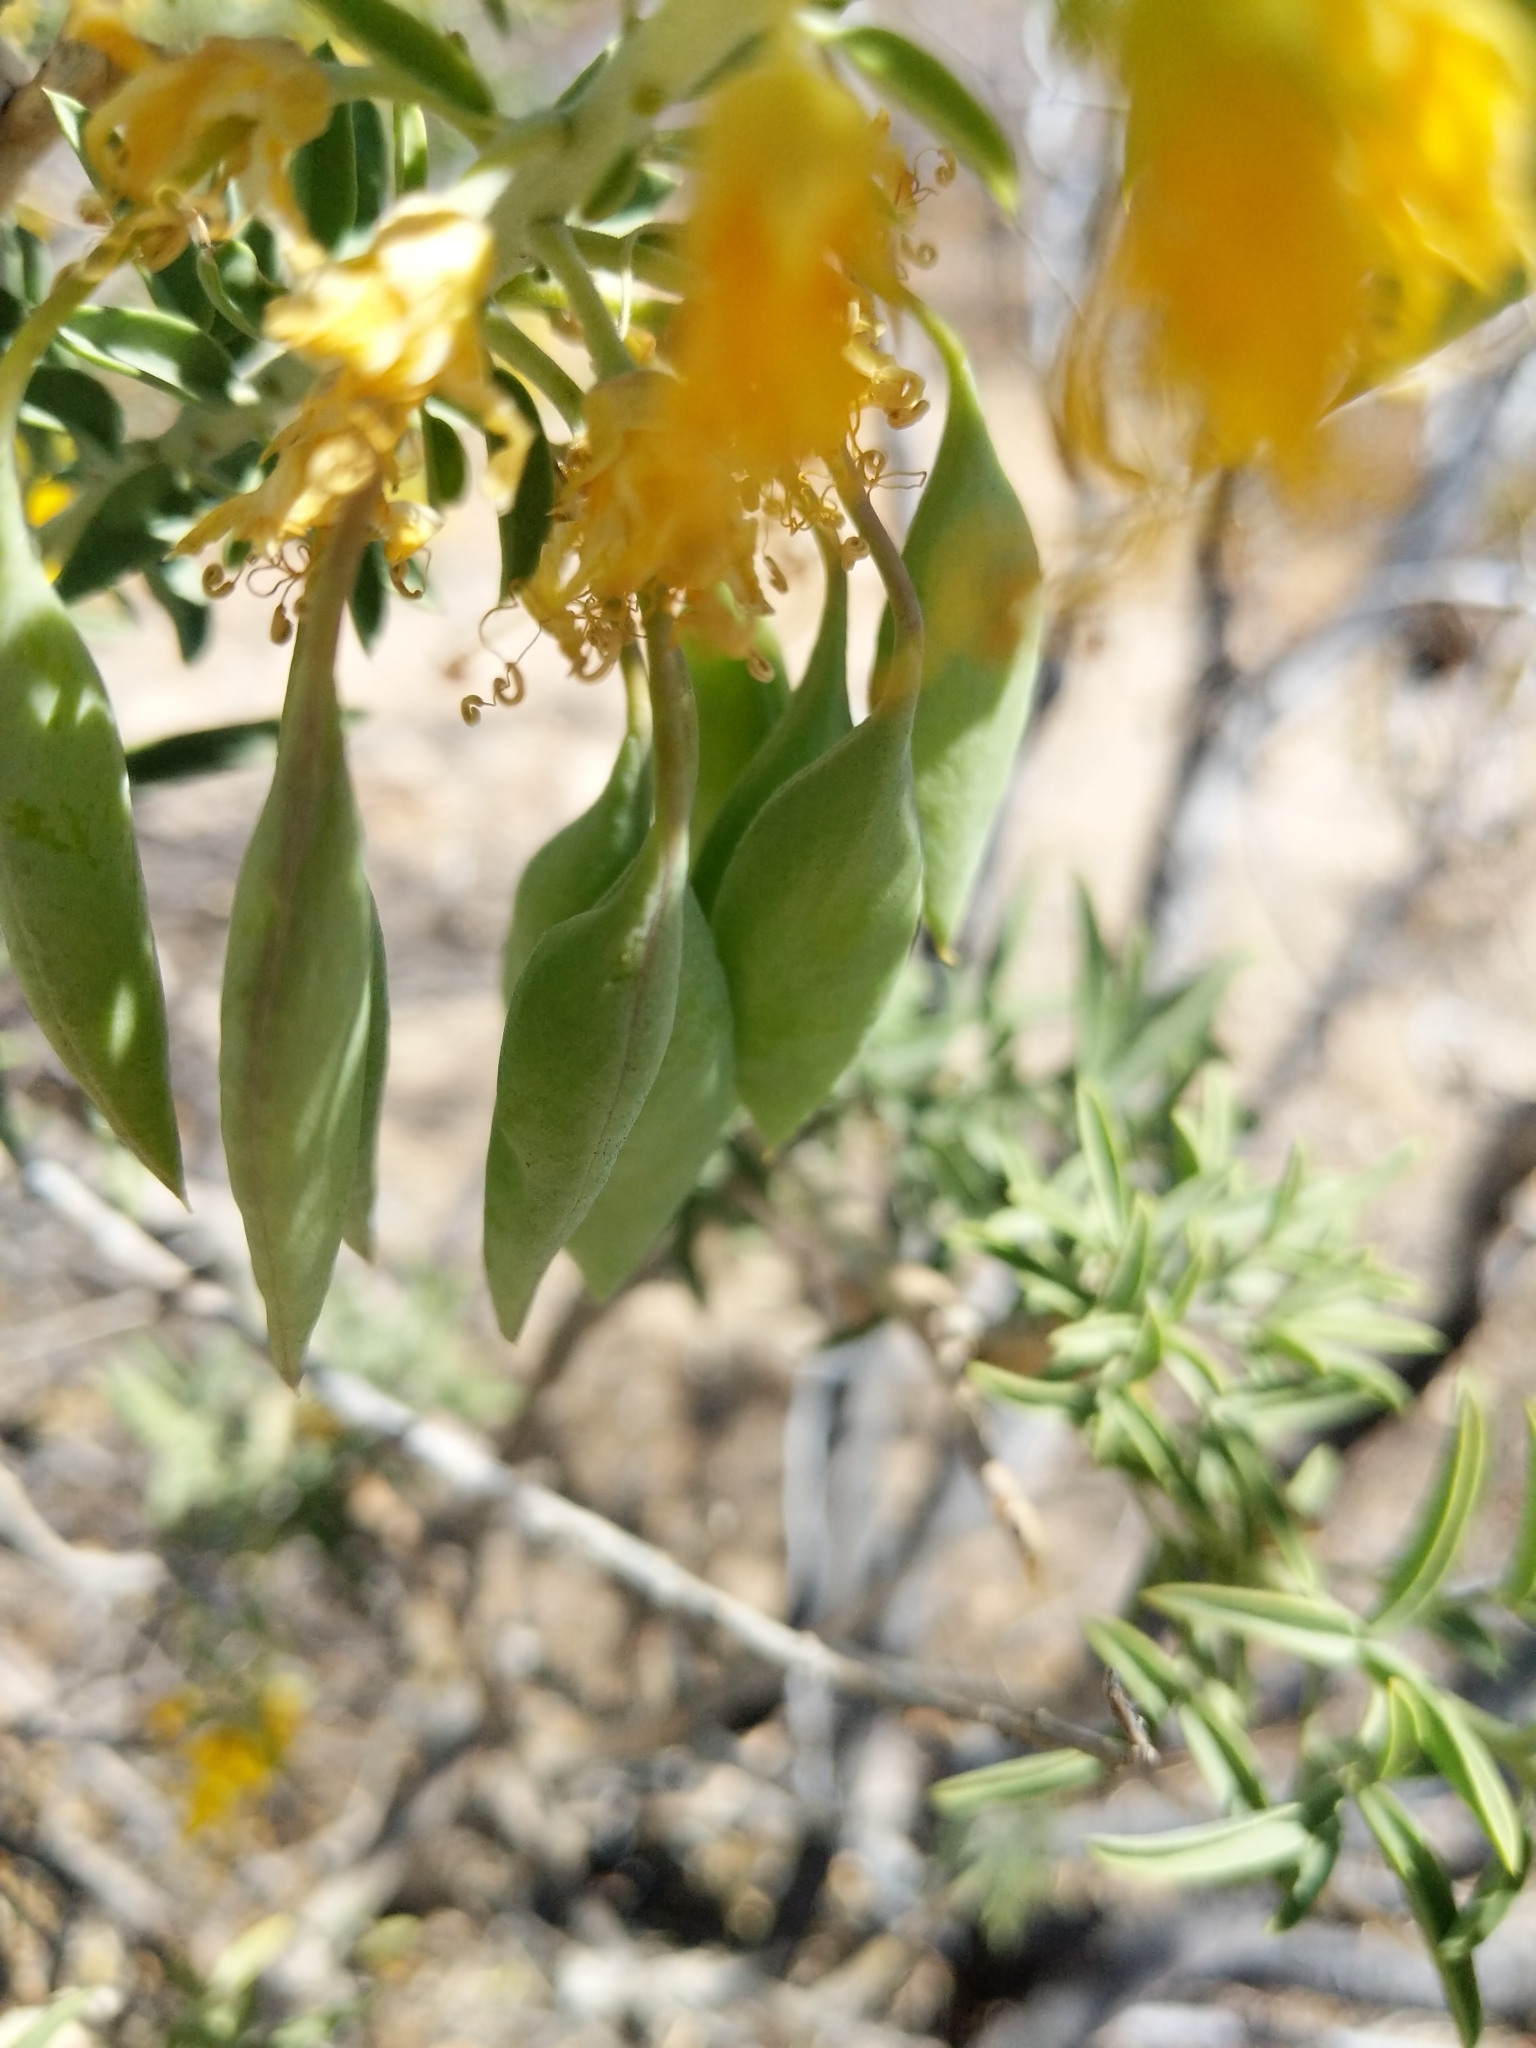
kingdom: Plantae
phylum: Tracheophyta
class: Magnoliopsida
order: Brassicales
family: Cleomaceae
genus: Cleomella
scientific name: Cleomella arborea
